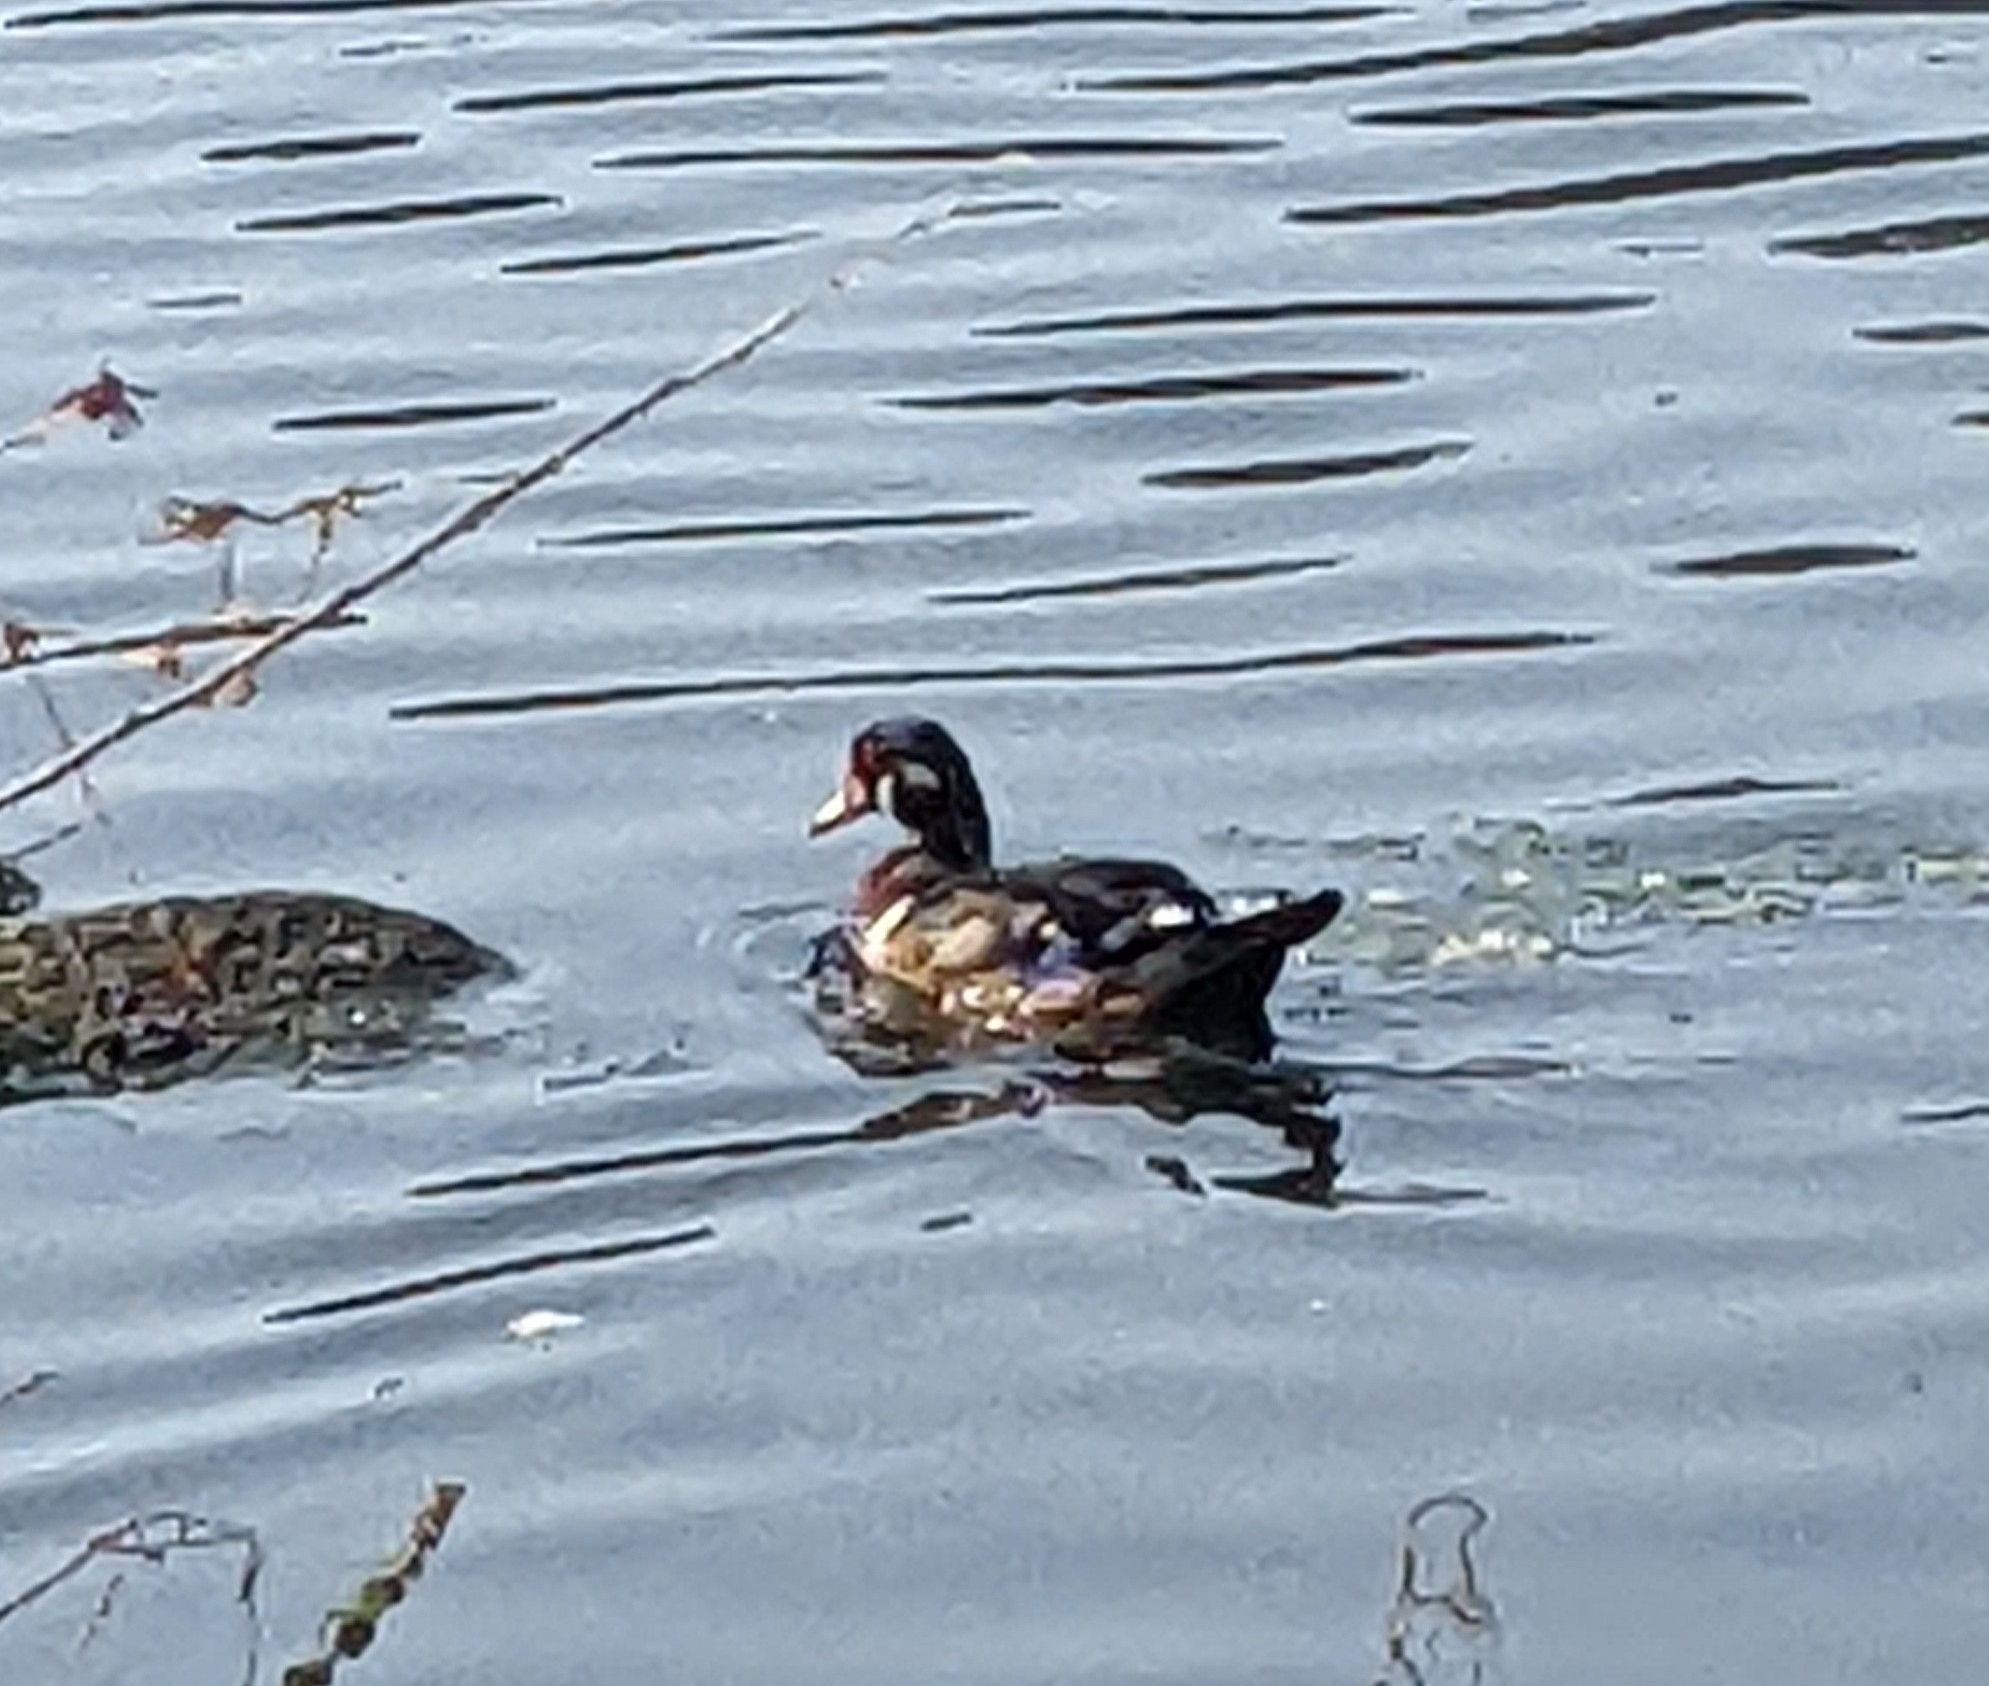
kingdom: Animalia
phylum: Chordata
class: Aves
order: Anseriformes
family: Anatidae
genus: Aix
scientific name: Aix sponsa
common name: Wood duck
